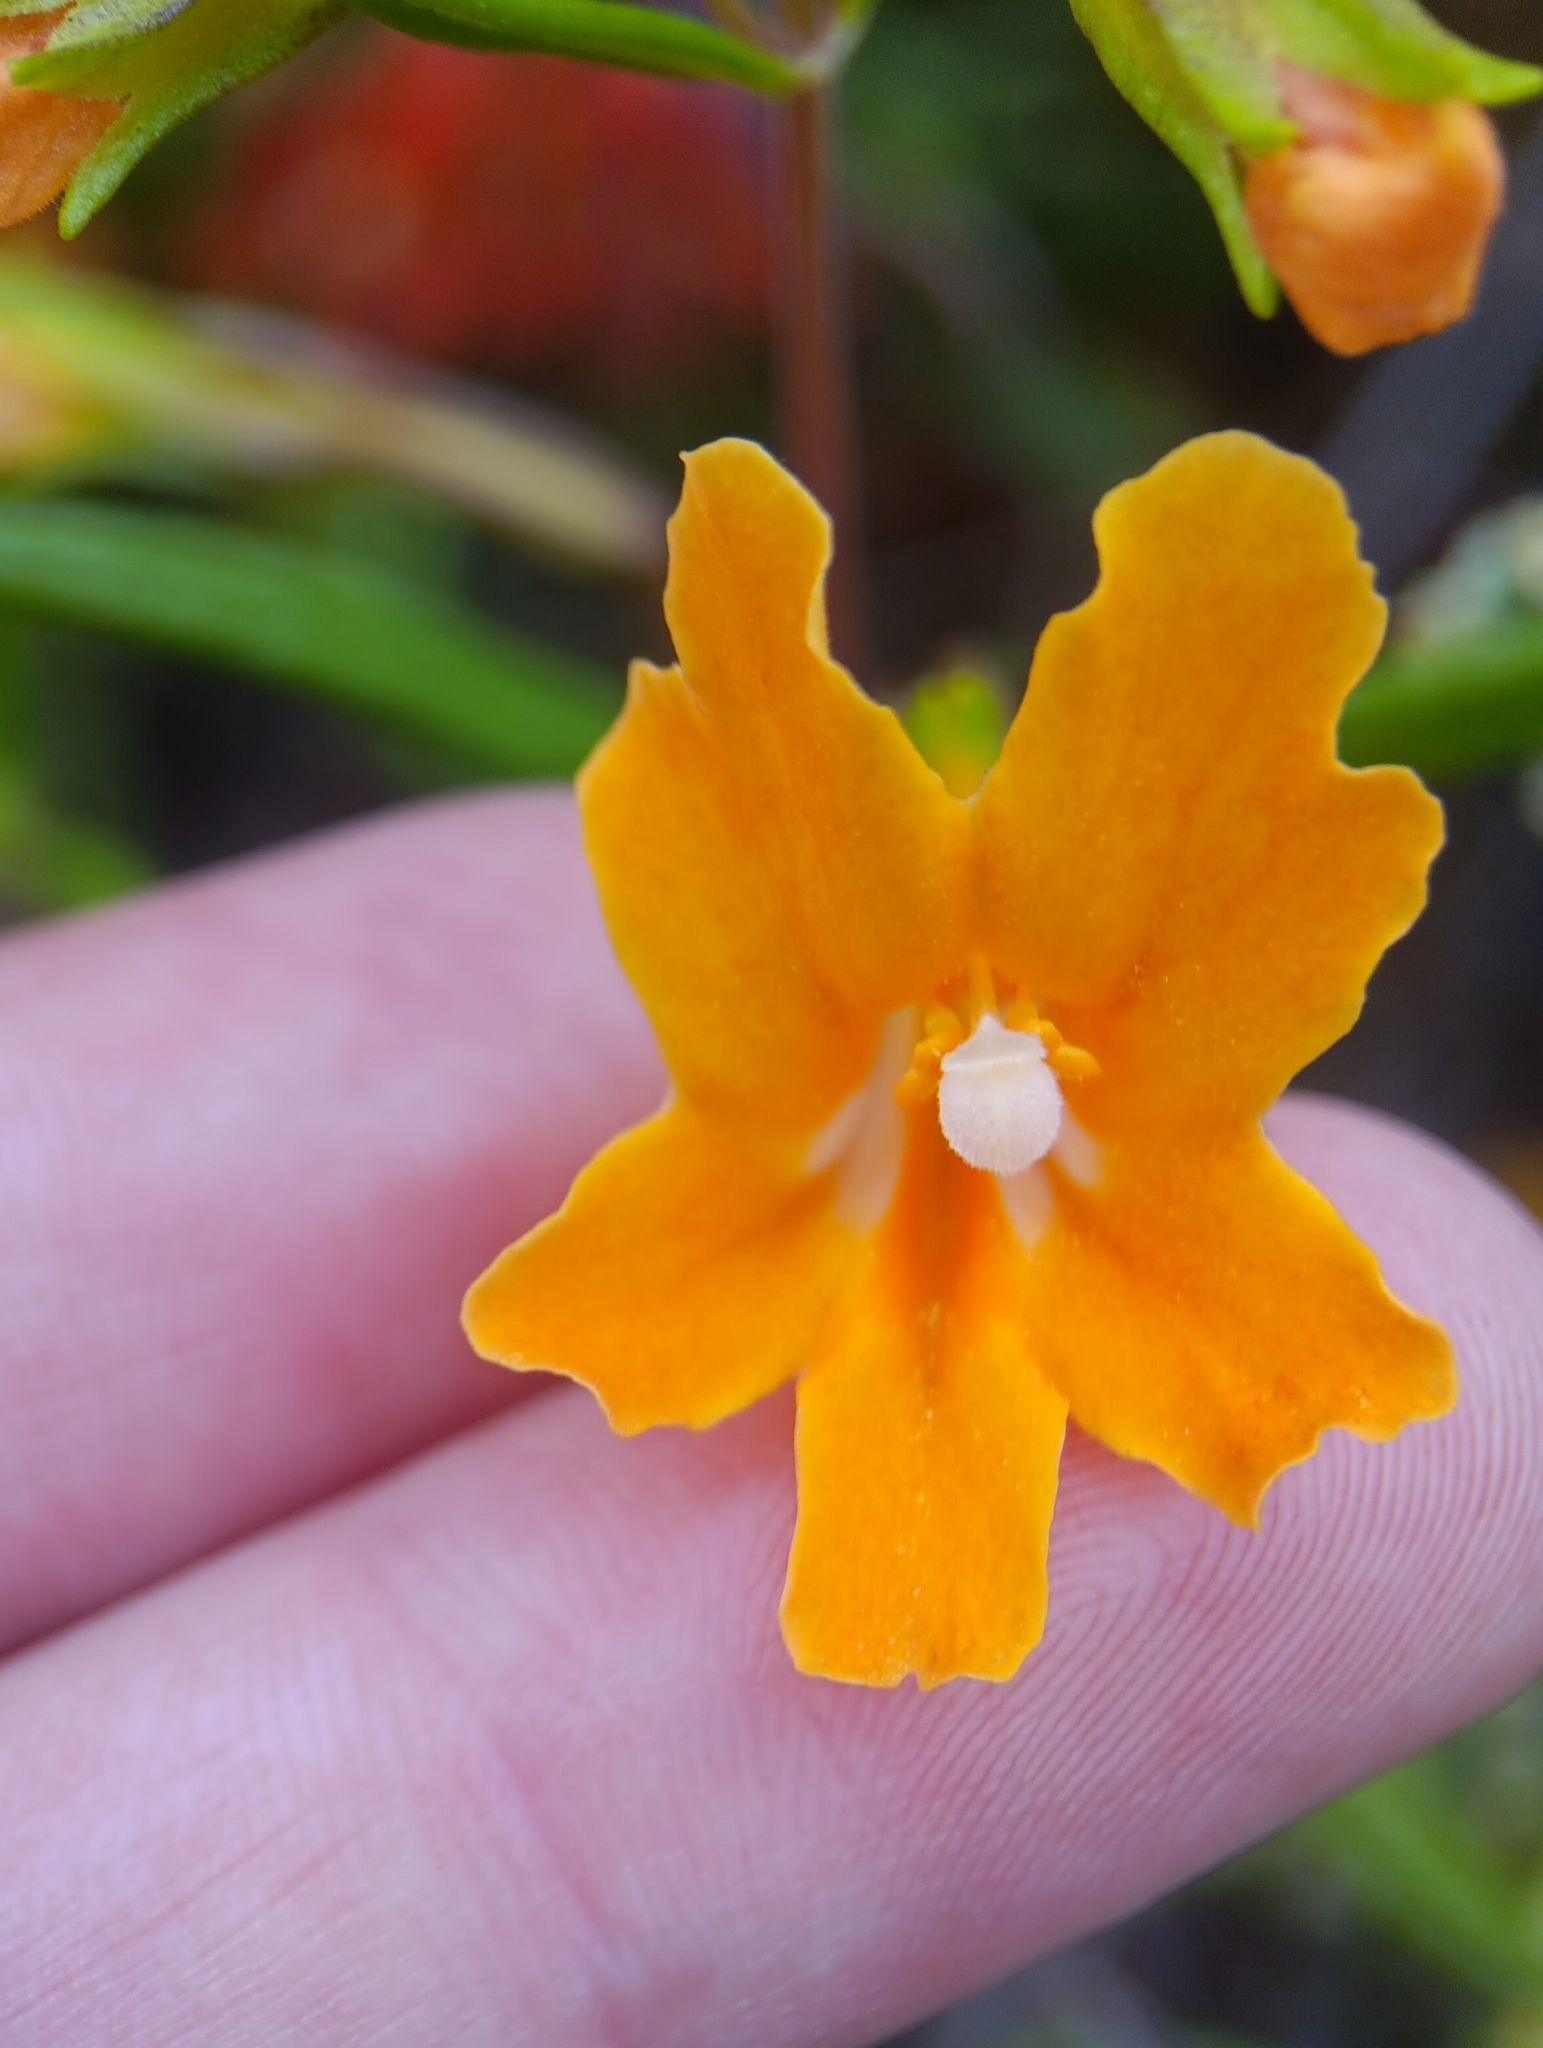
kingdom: Plantae
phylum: Tracheophyta
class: Magnoliopsida
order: Lamiales
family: Phrymaceae
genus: Diplacus
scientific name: Diplacus australis
